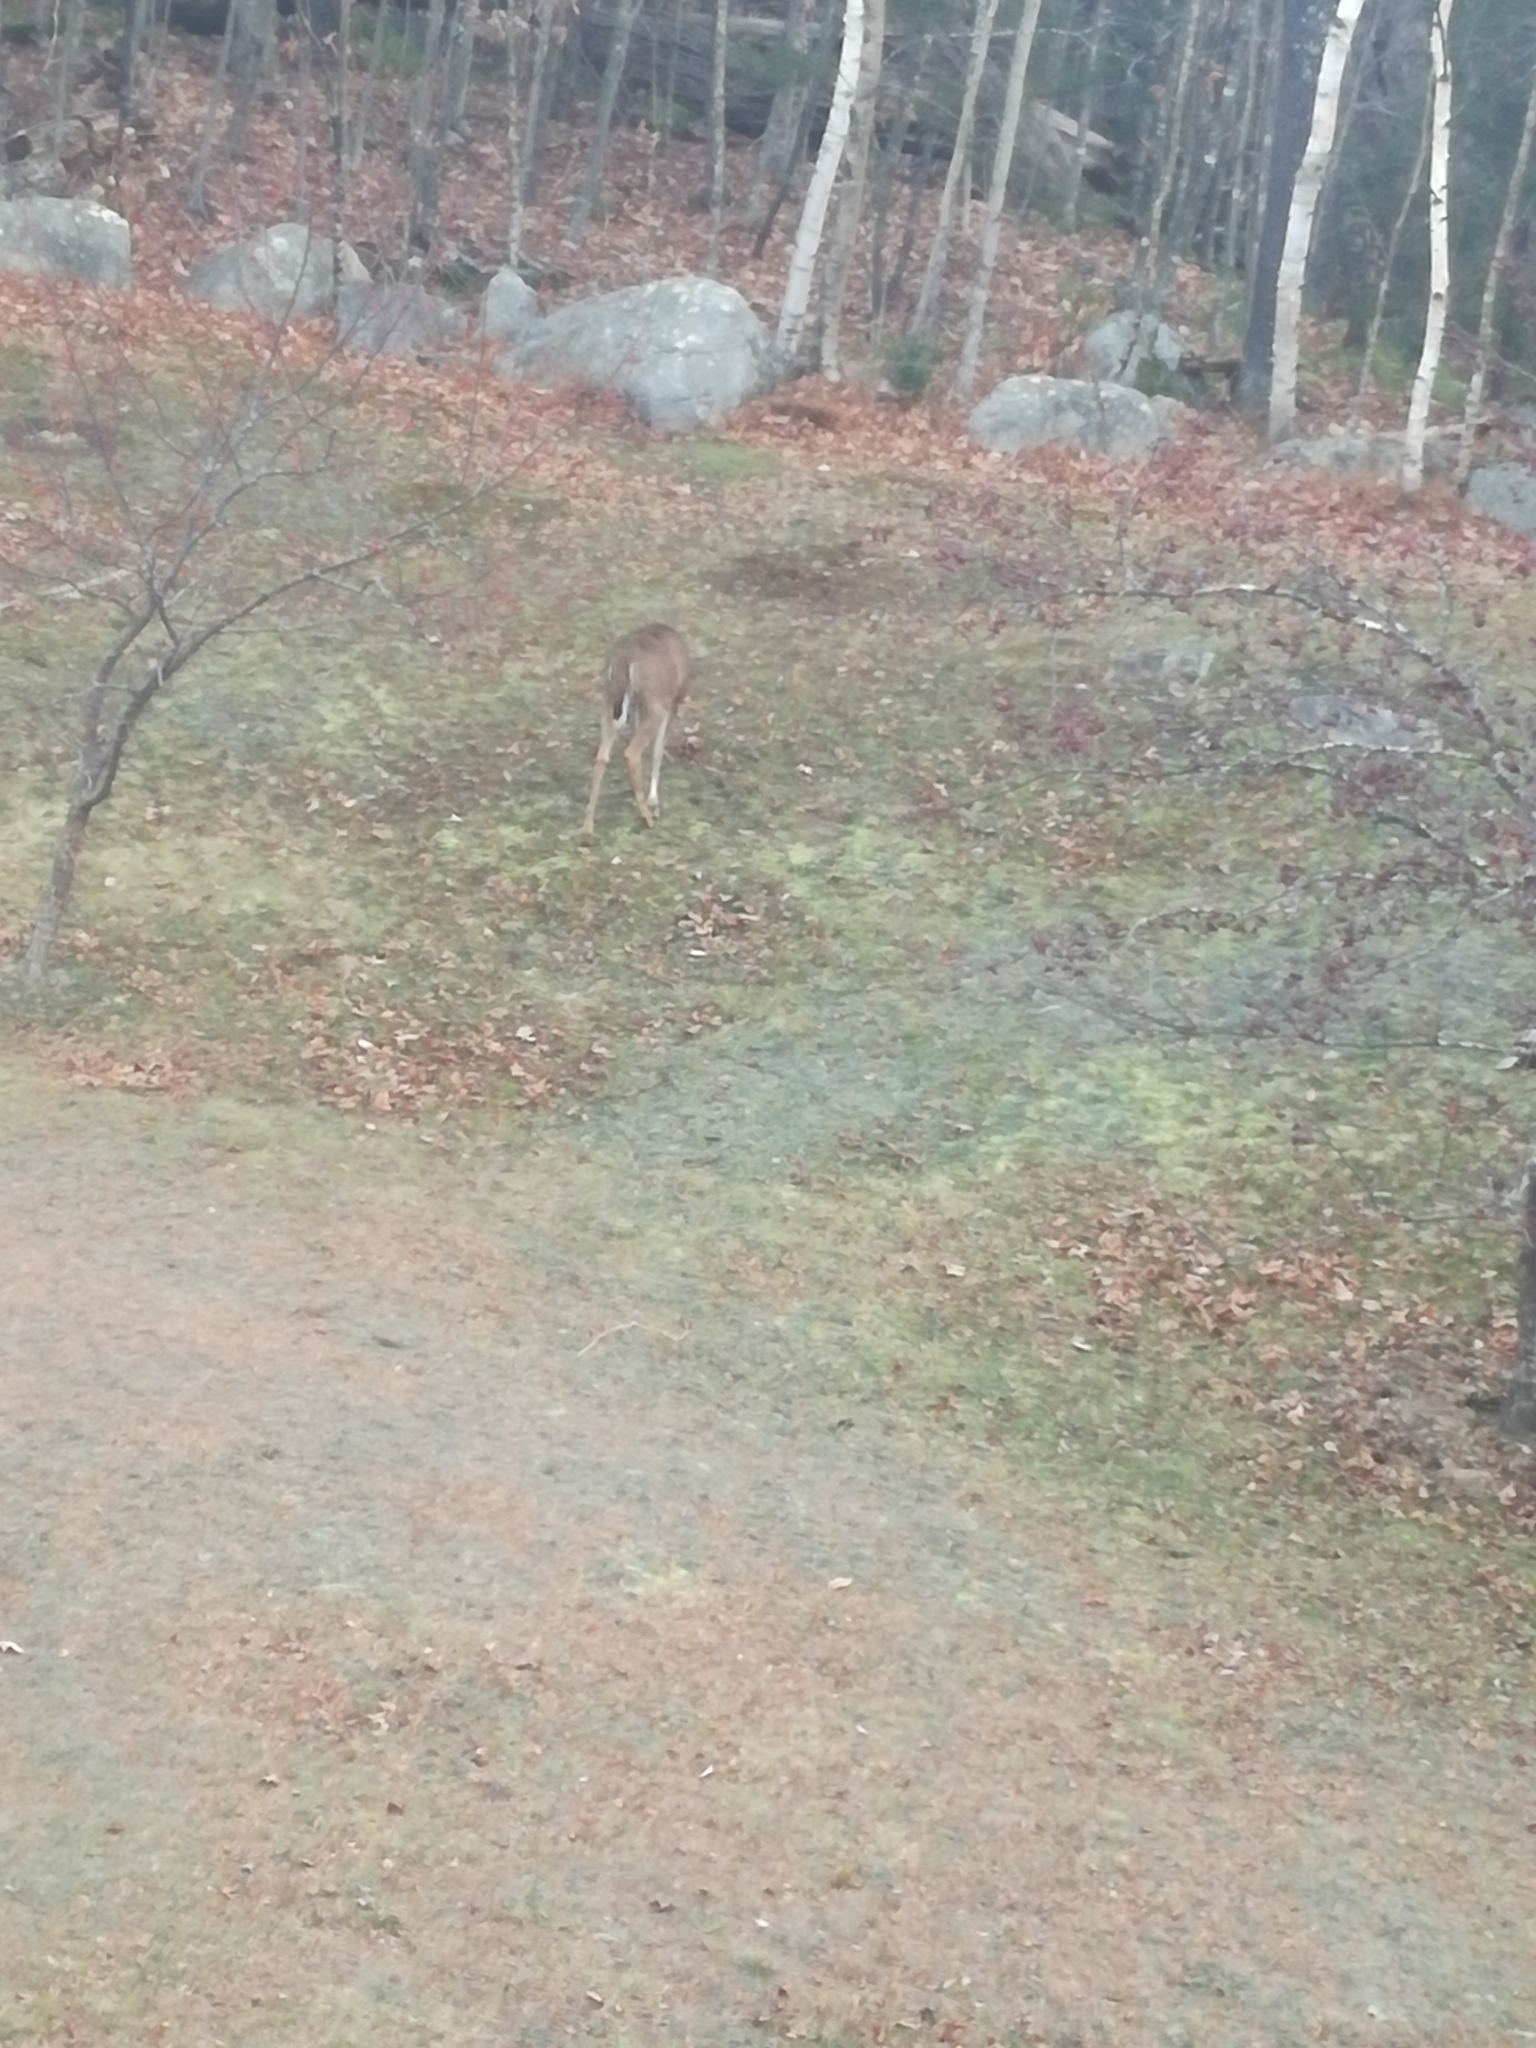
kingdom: Animalia
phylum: Chordata
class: Mammalia
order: Artiodactyla
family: Cervidae
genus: Odocoileus
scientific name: Odocoileus virginianus
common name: White-tailed deer
